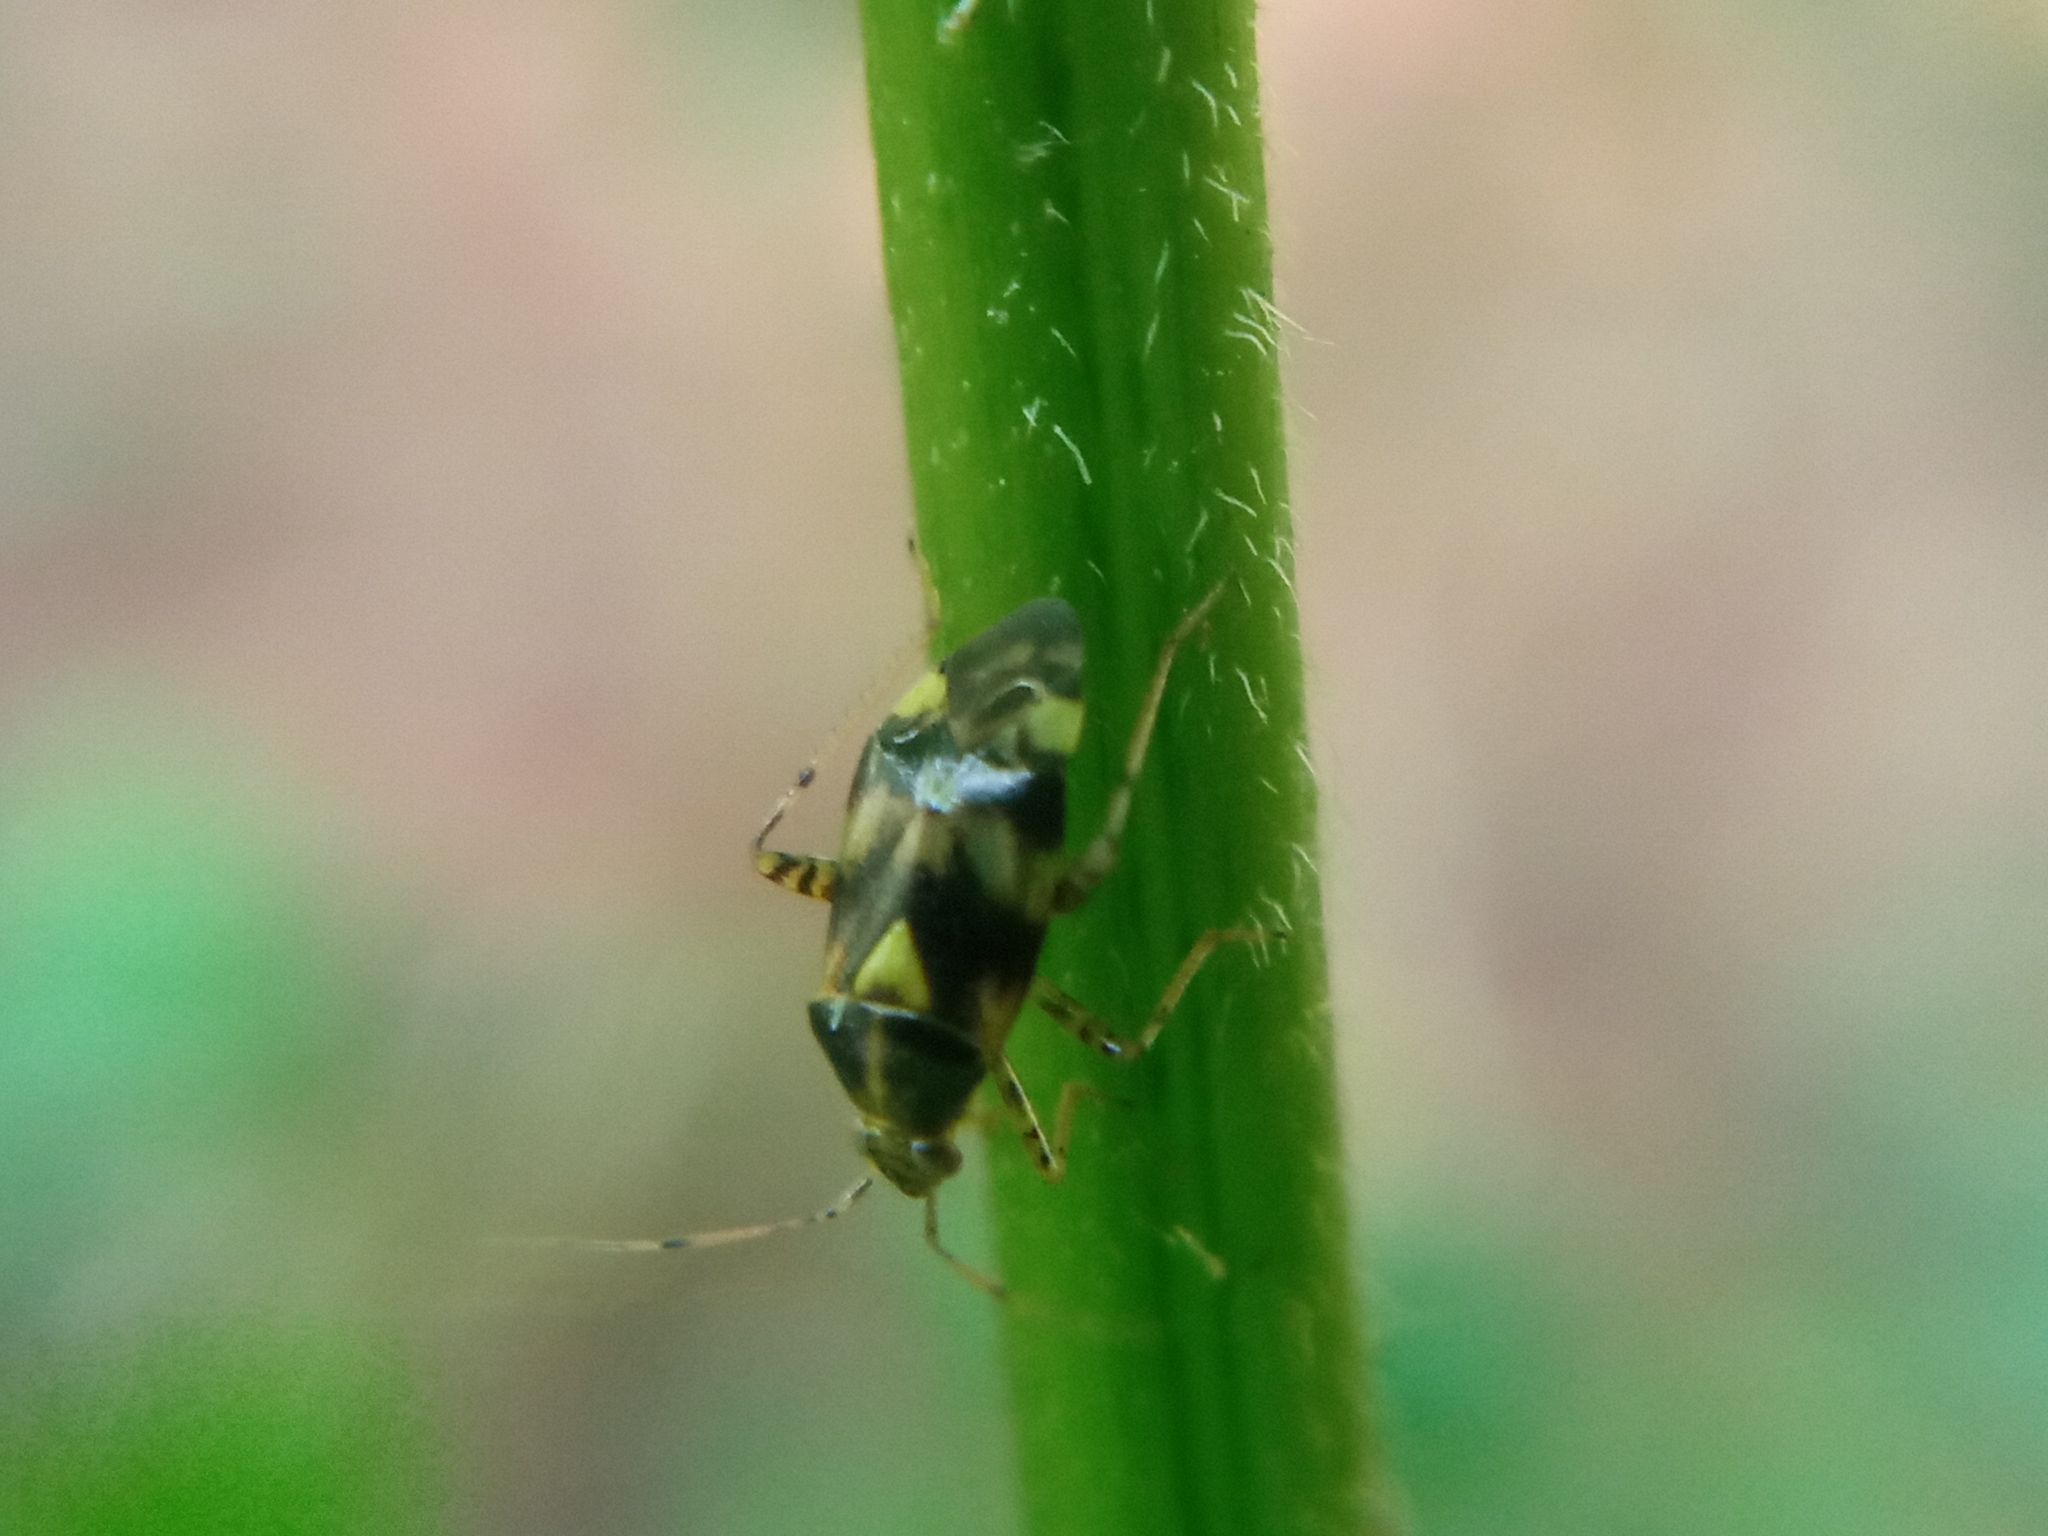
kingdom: Animalia
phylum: Arthropoda
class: Insecta
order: Hemiptera
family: Miridae
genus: Liocoris
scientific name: Liocoris tripustulatus
